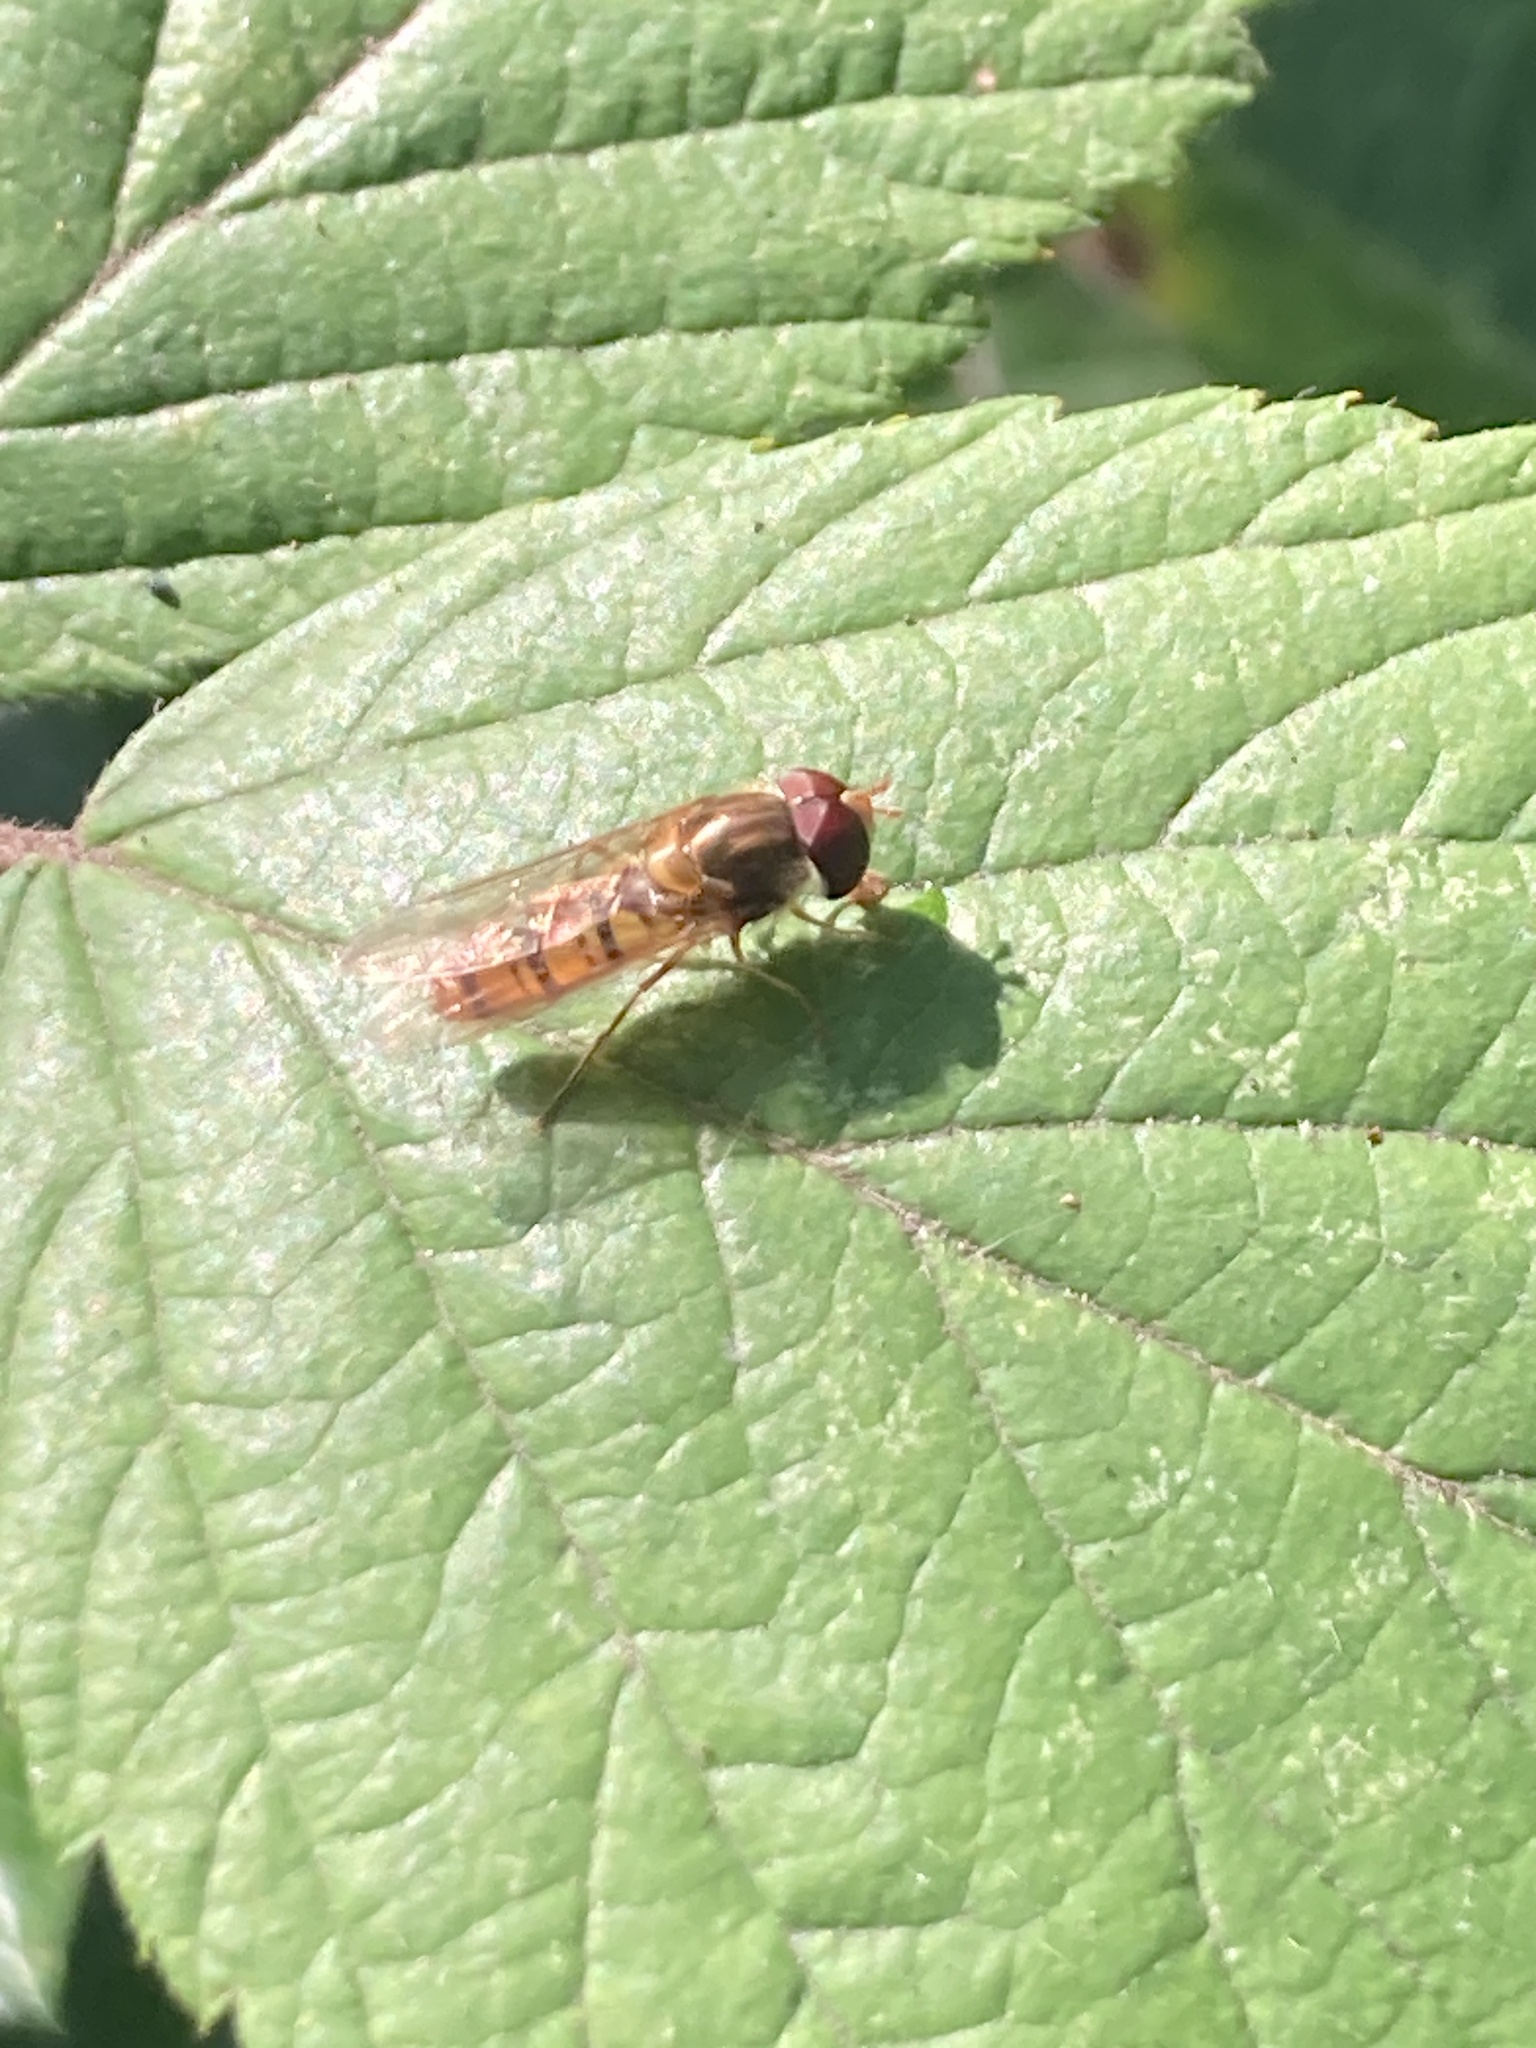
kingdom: Animalia
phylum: Arthropoda
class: Insecta
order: Diptera
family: Syrphidae
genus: Episyrphus
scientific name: Episyrphus balteatus
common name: Marmalade hoverfly
